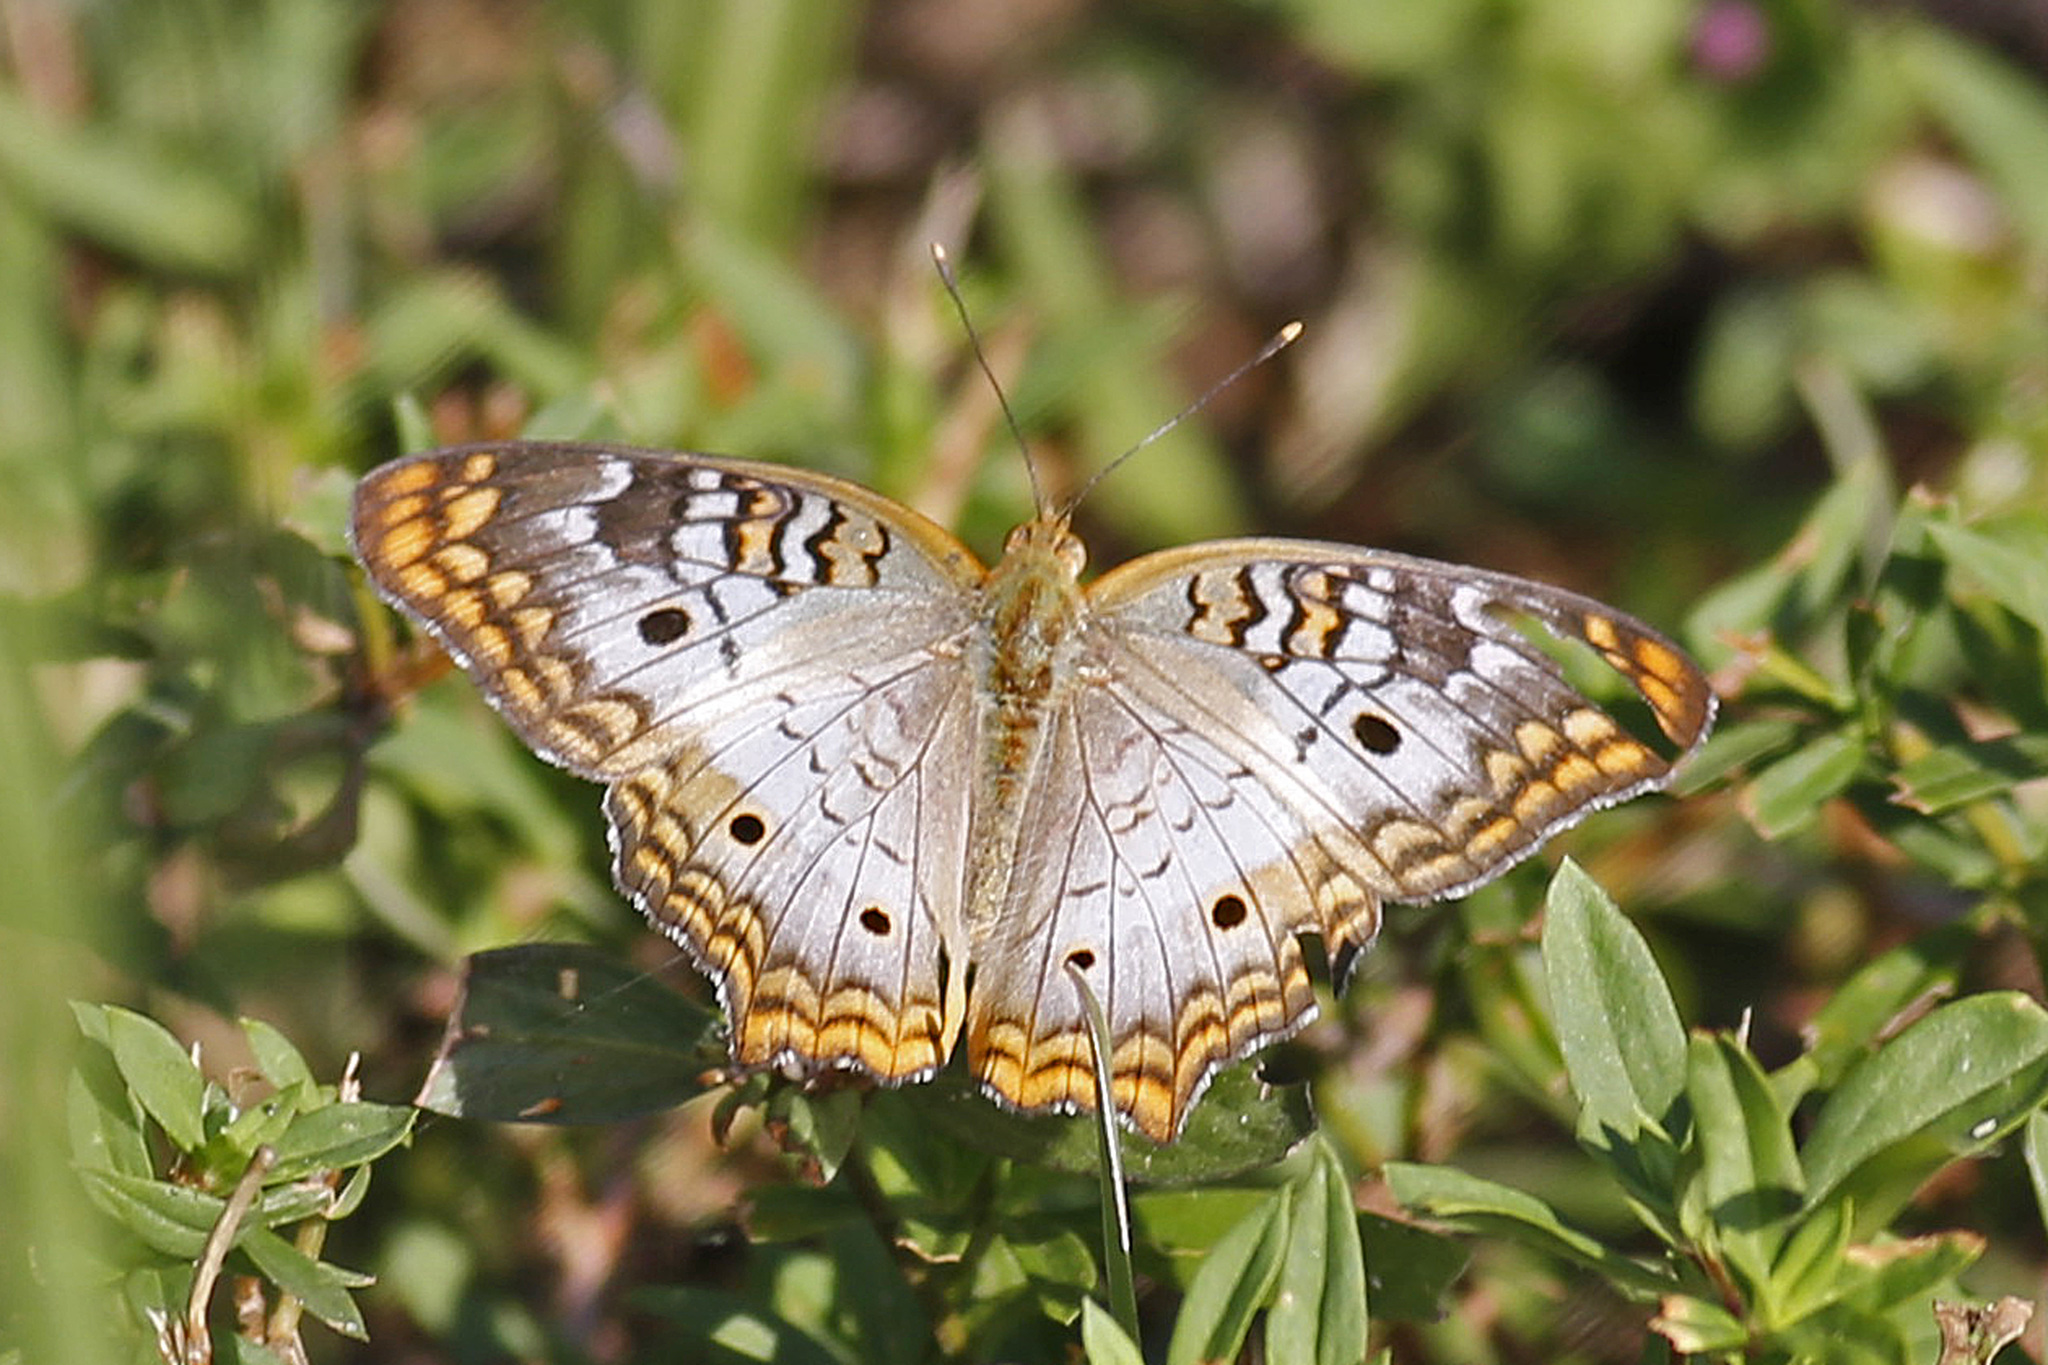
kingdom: Animalia
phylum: Arthropoda
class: Insecta
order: Lepidoptera
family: Nymphalidae
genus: Anartia
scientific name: Anartia jatrophae
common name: White peacock
